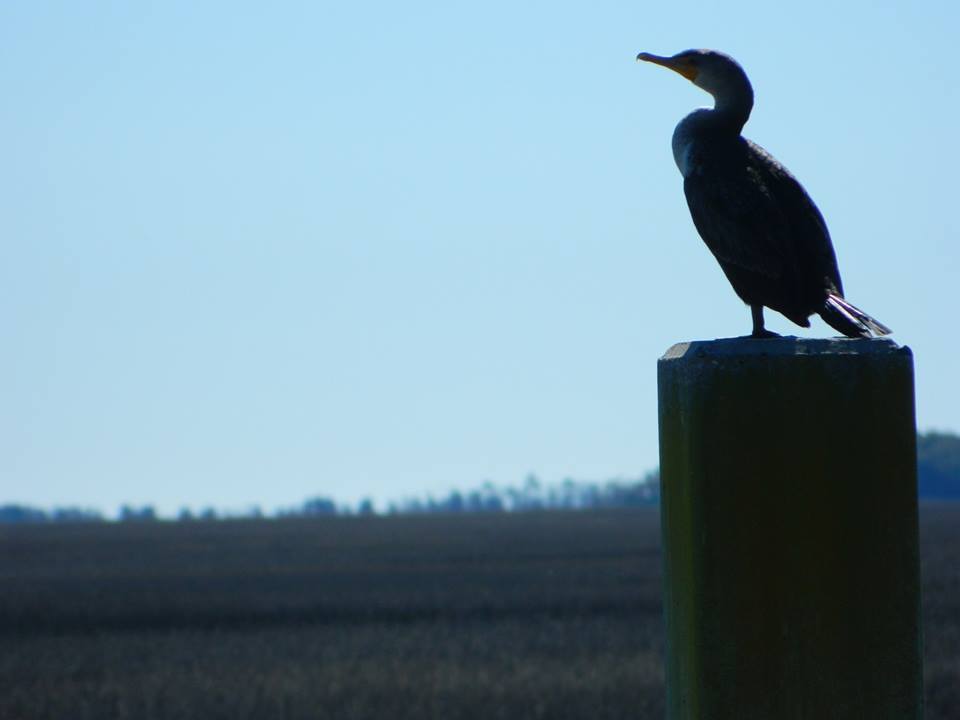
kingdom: Animalia
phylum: Chordata
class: Aves
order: Suliformes
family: Phalacrocoracidae
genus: Phalacrocorax
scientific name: Phalacrocorax auritus
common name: Double-crested cormorant
